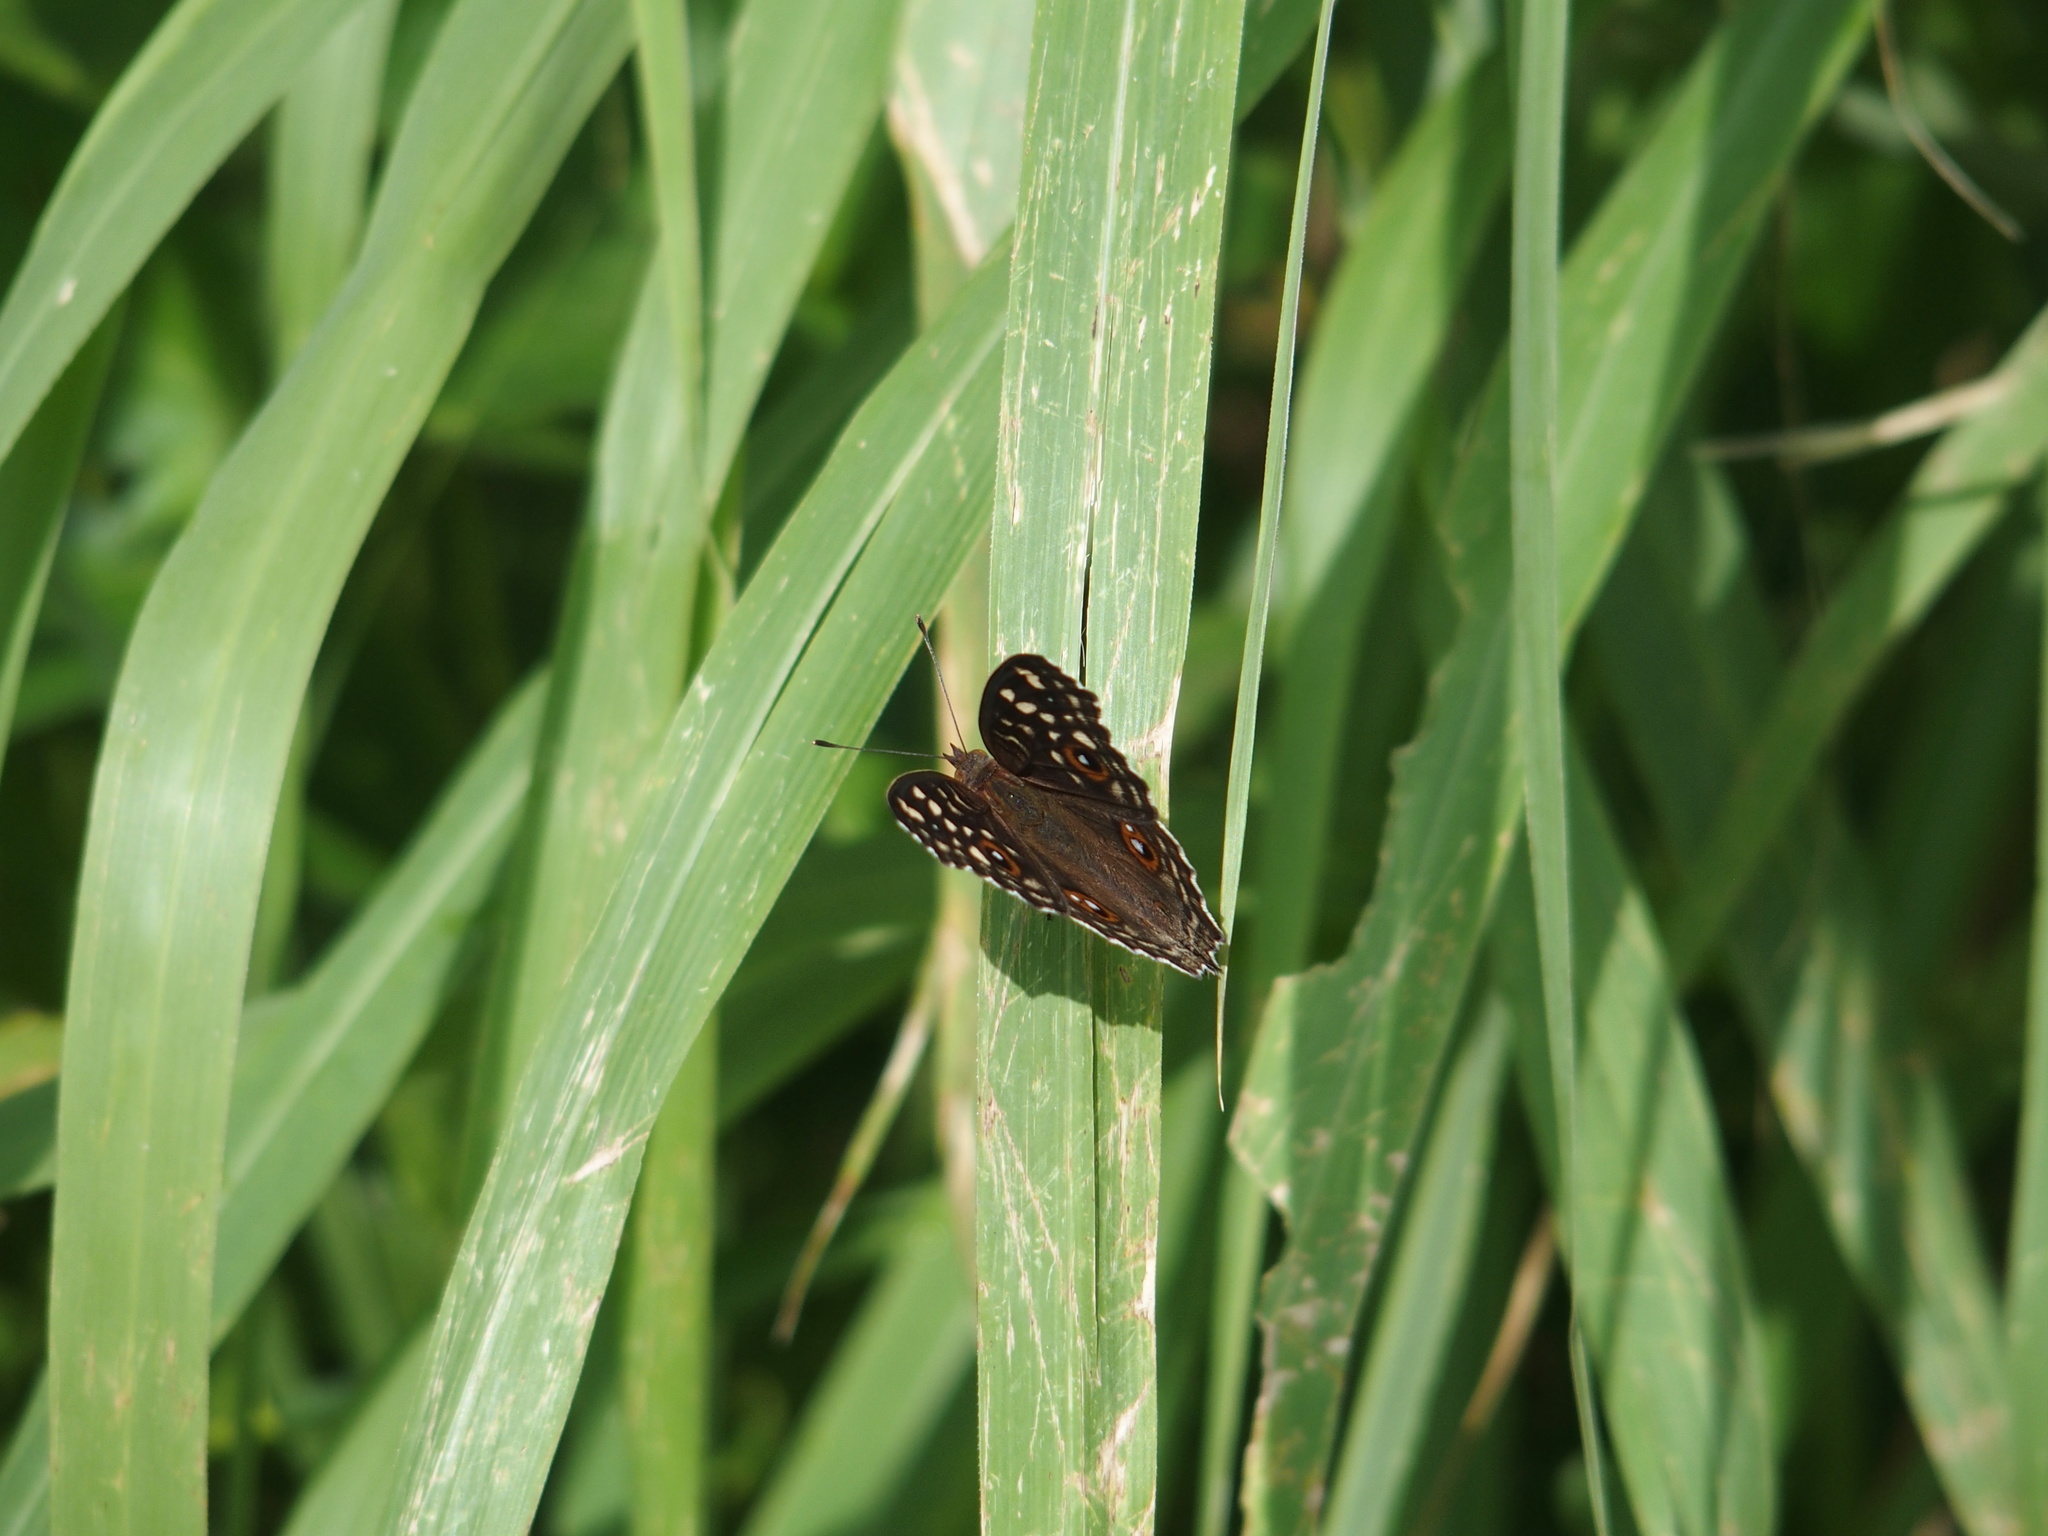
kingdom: Animalia
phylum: Arthropoda
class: Insecta
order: Lepidoptera
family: Nymphalidae
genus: Junonia
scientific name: Junonia lemonias
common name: Lemon pansy
